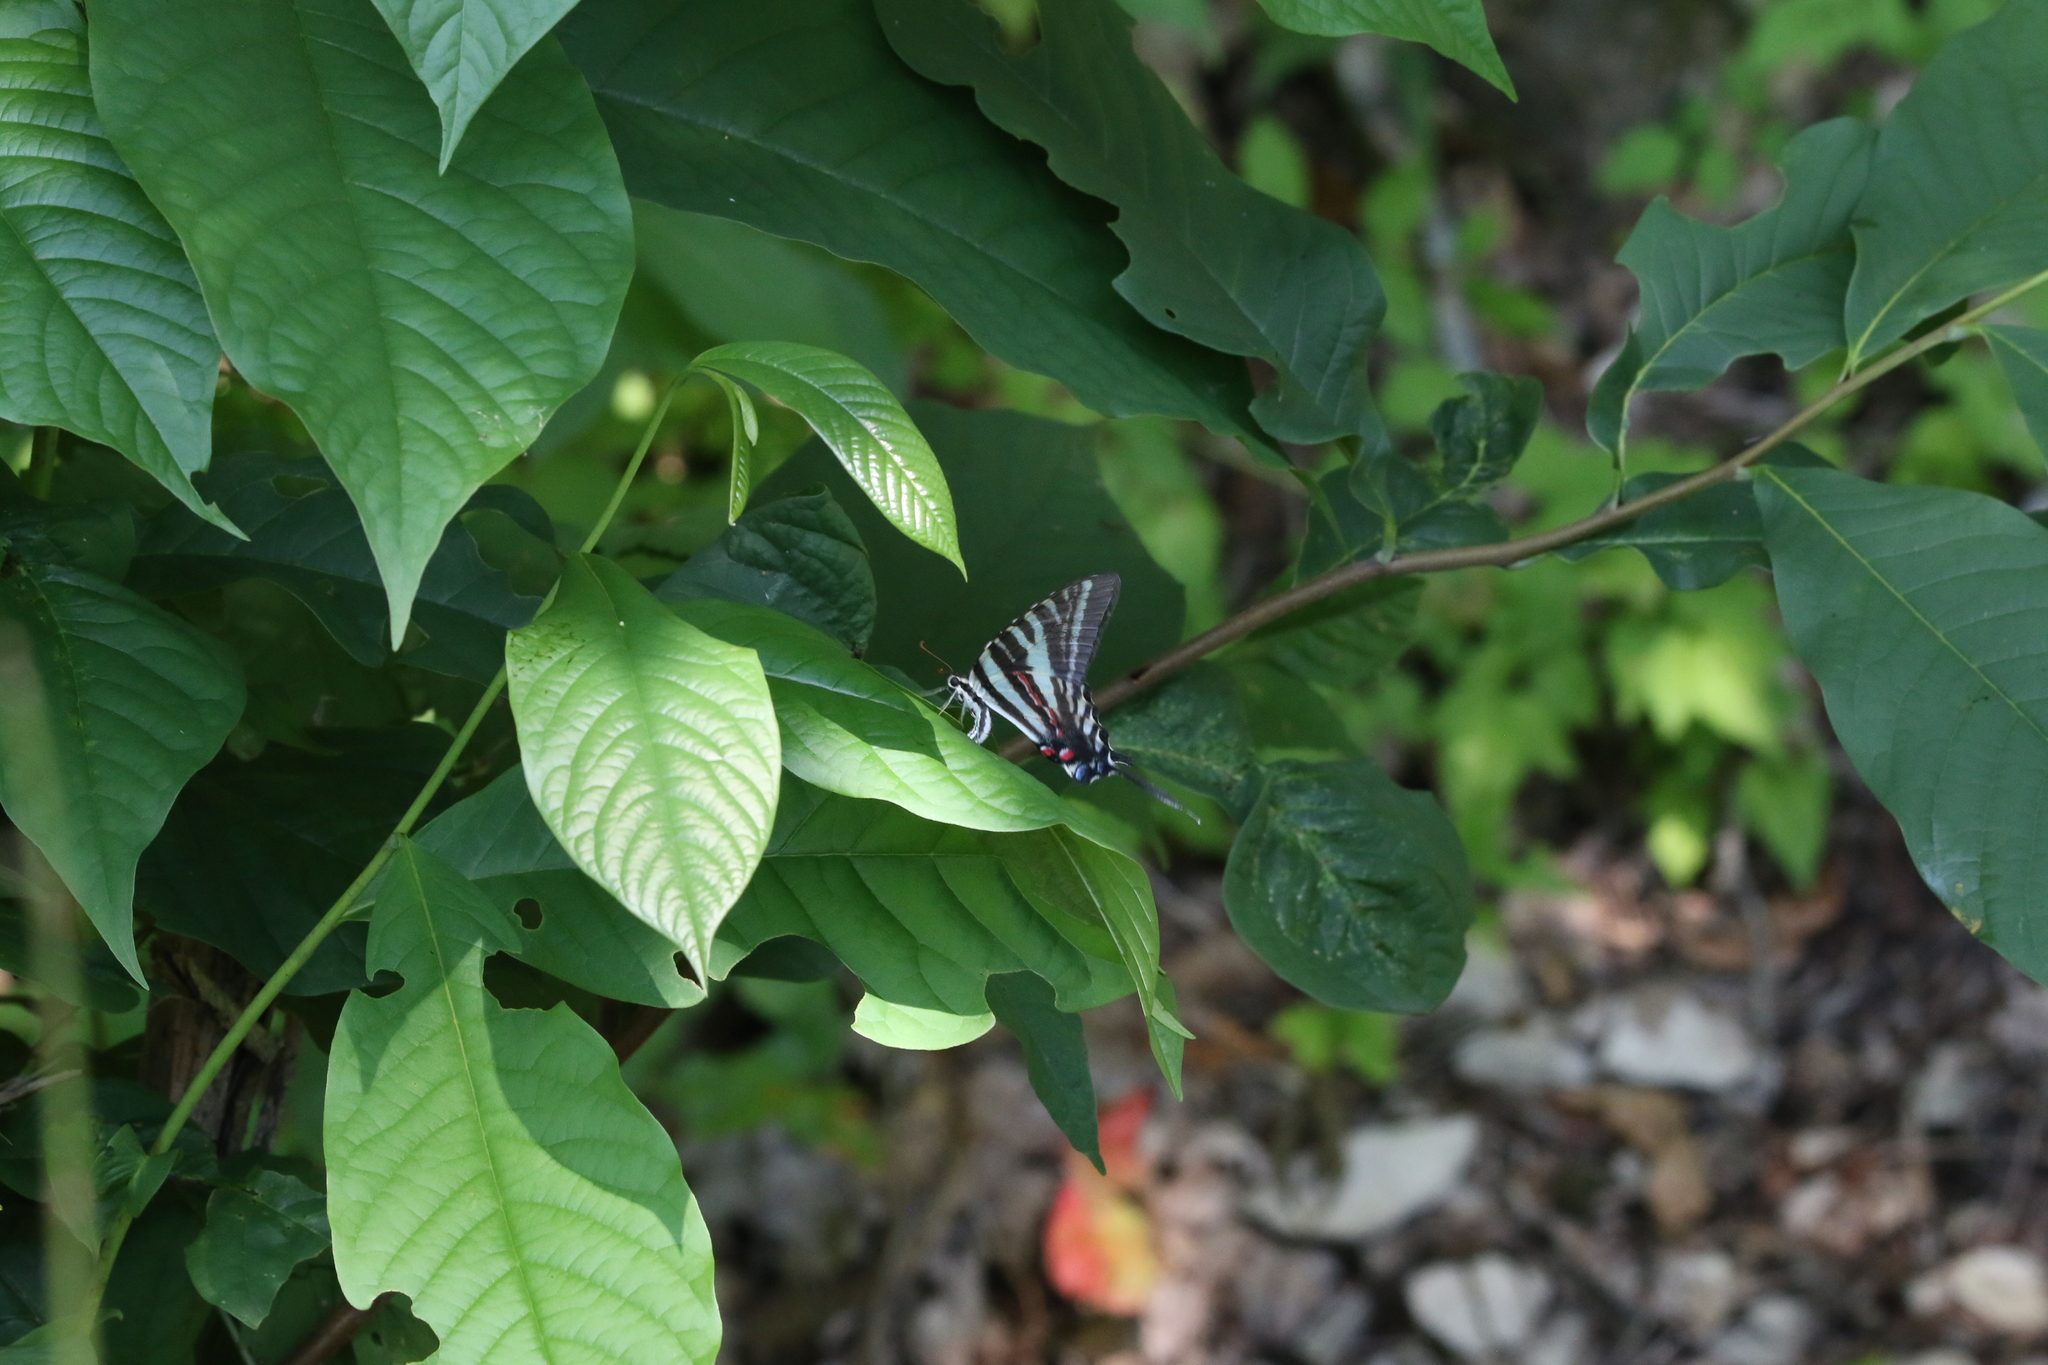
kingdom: Animalia
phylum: Arthropoda
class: Insecta
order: Lepidoptera
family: Papilionidae
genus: Protographium
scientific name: Protographium marcellus
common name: Zebra swallowtail
